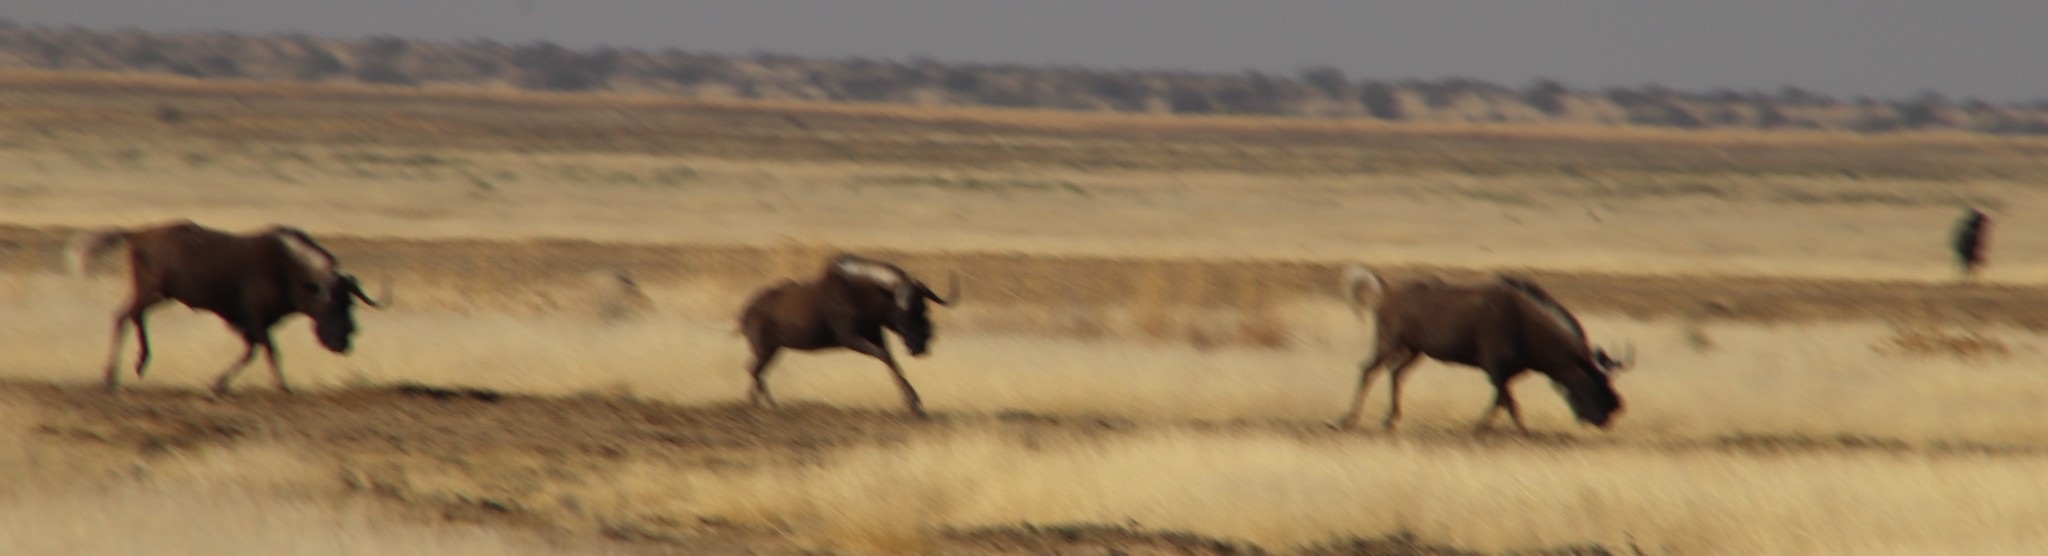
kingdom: Animalia
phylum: Chordata
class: Mammalia
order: Artiodactyla
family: Bovidae
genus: Connochaetes
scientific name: Connochaetes gnou
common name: Black wildebeest
